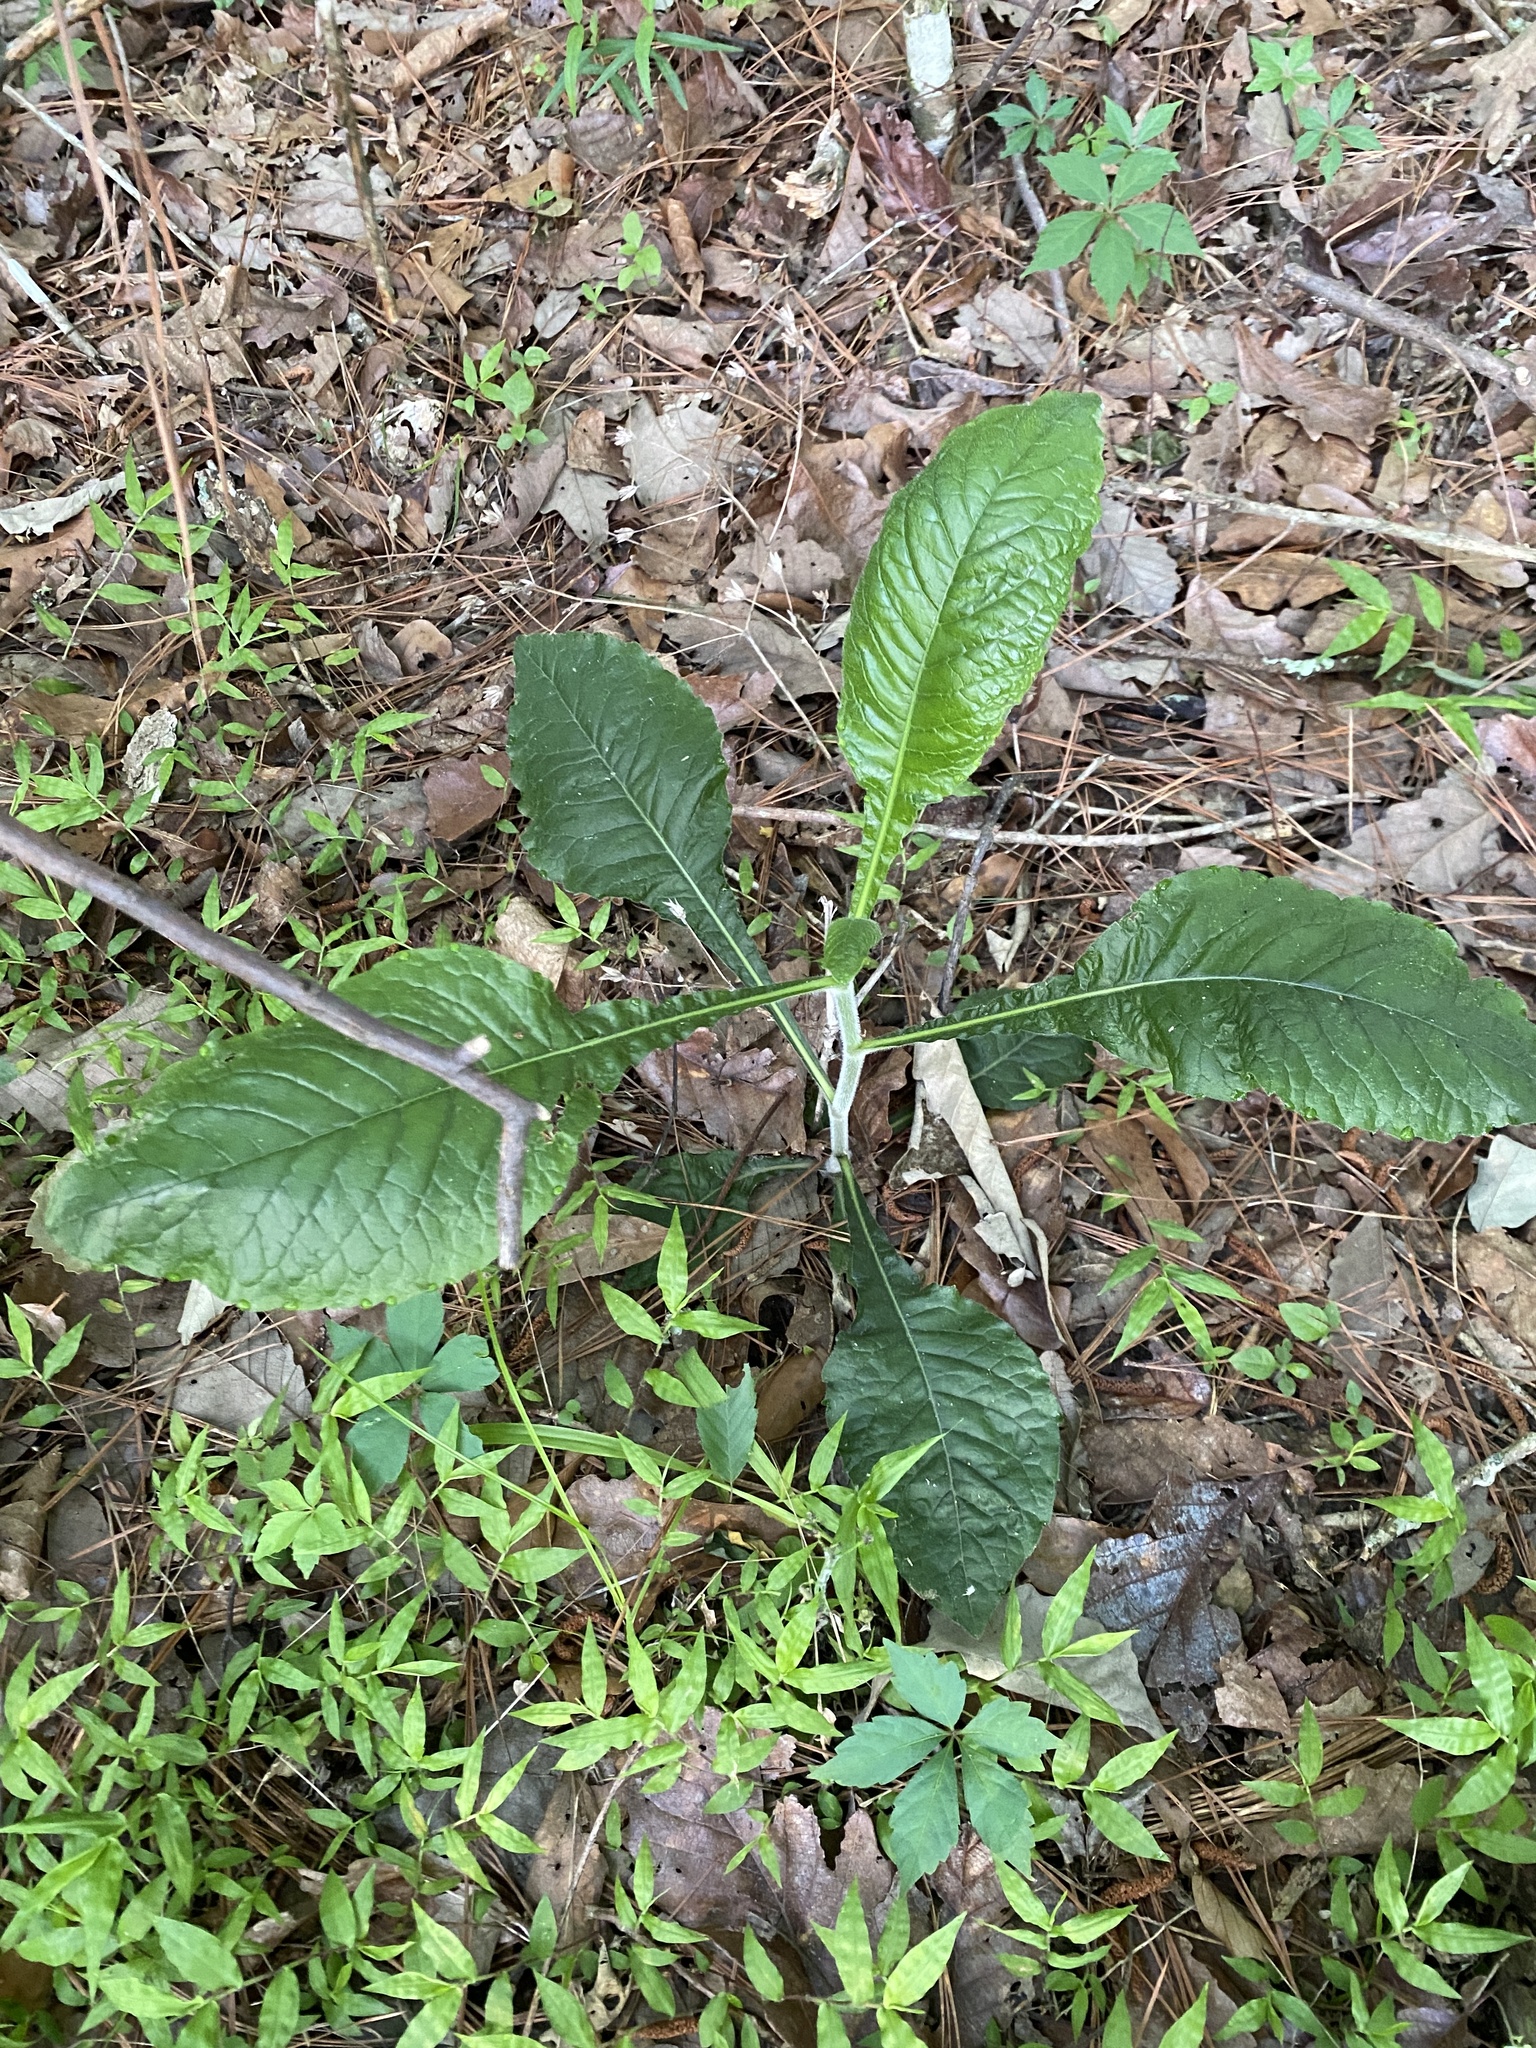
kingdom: Plantae
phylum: Tracheophyta
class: Magnoliopsida
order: Asterales
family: Asteraceae
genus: Elephantopus
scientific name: Elephantopus carolinianus
